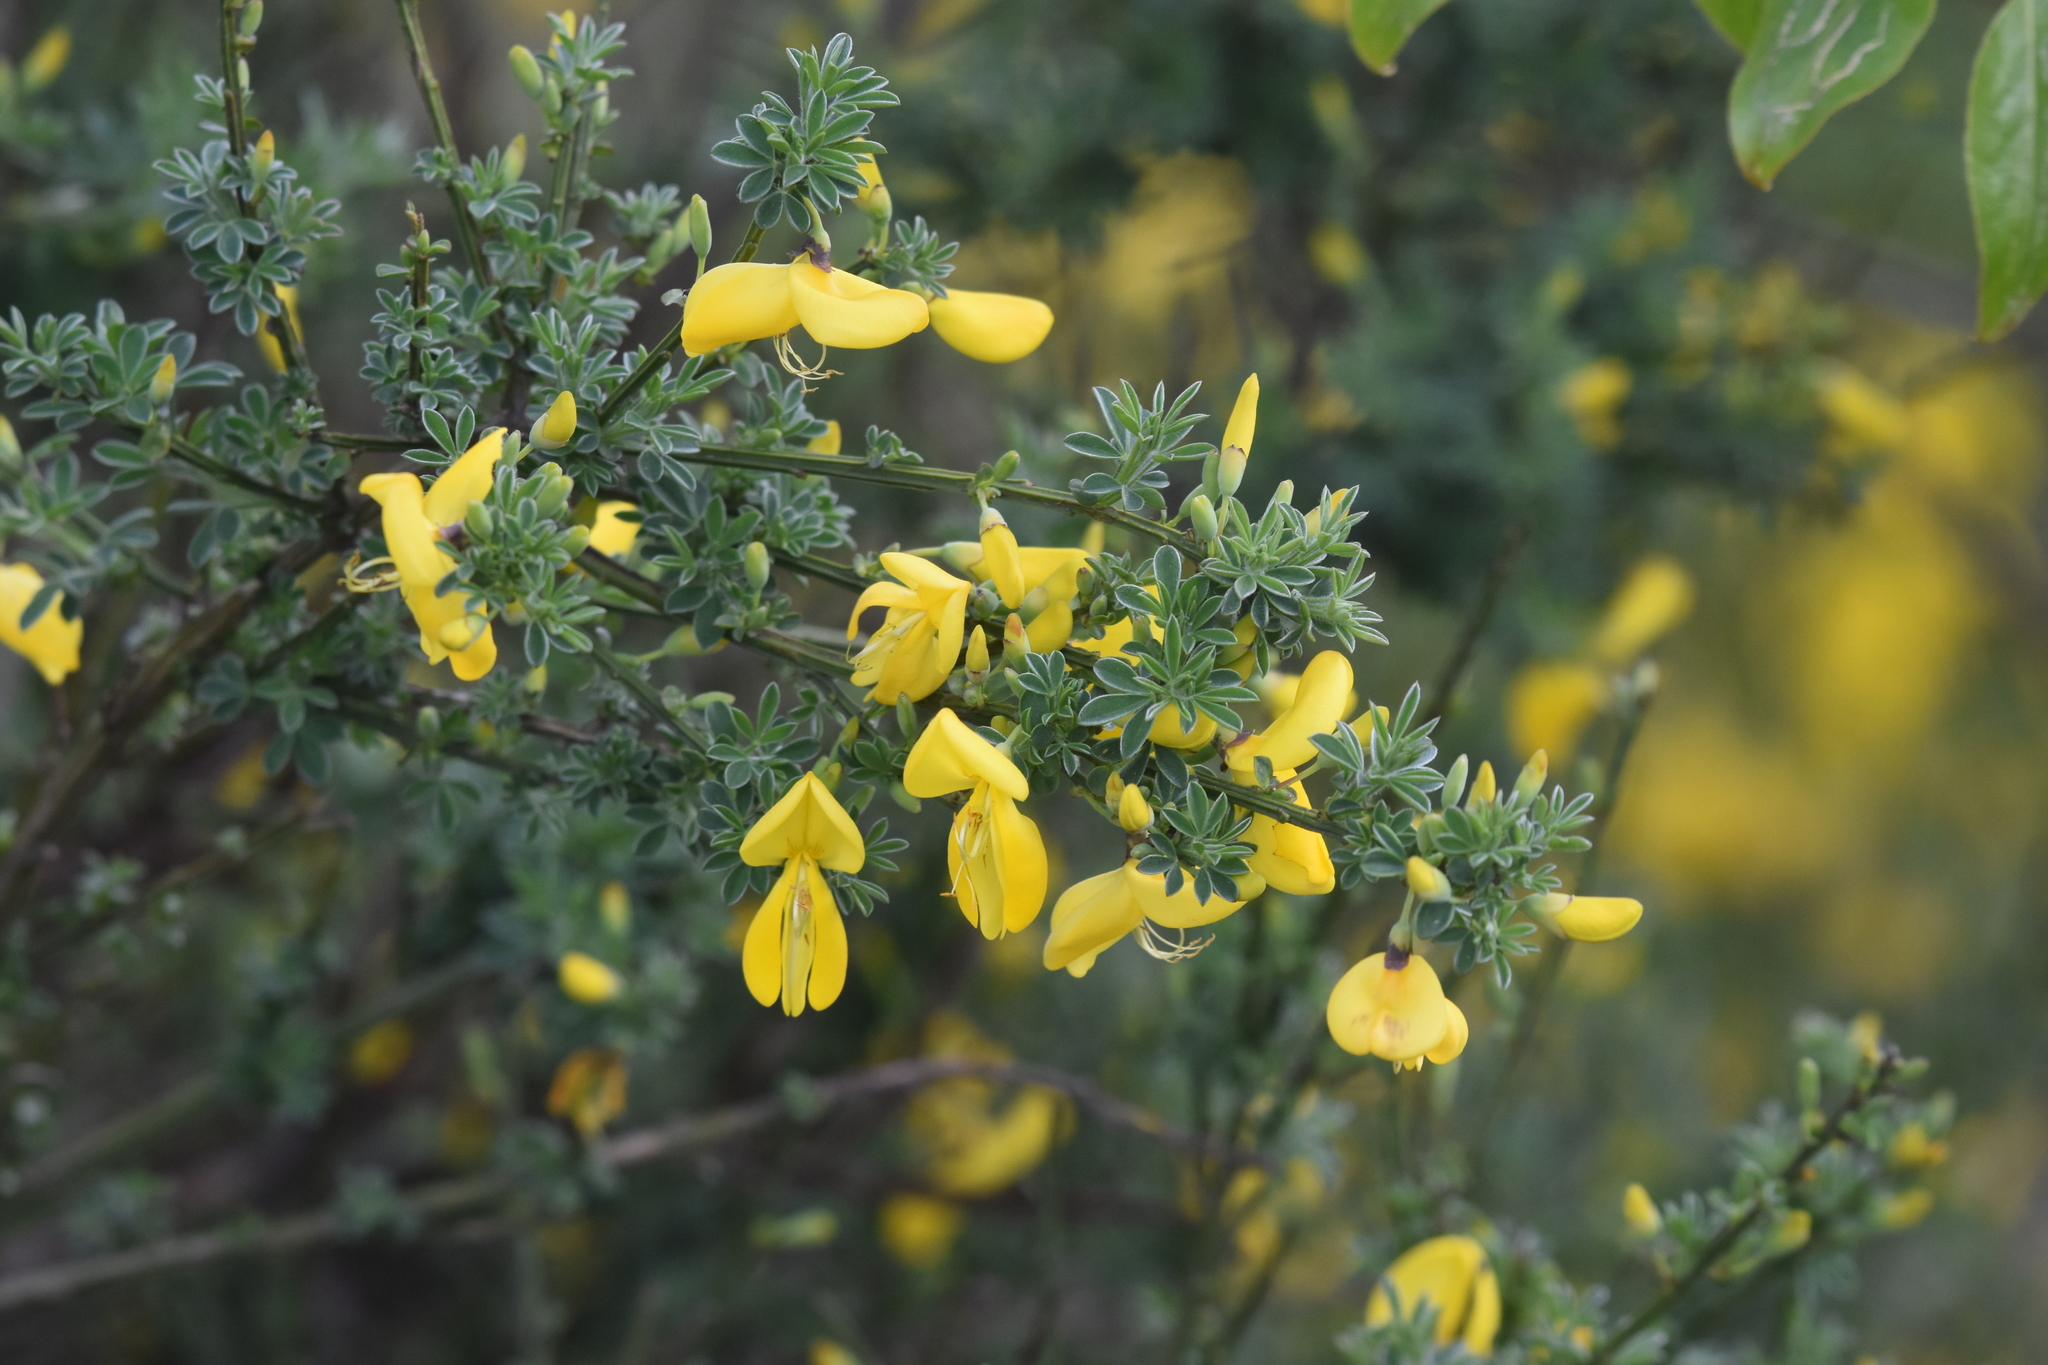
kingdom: Plantae
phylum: Tracheophyta
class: Magnoliopsida
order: Fabales
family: Fabaceae
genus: Cytisus
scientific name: Cytisus scoparius
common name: Scotch broom
